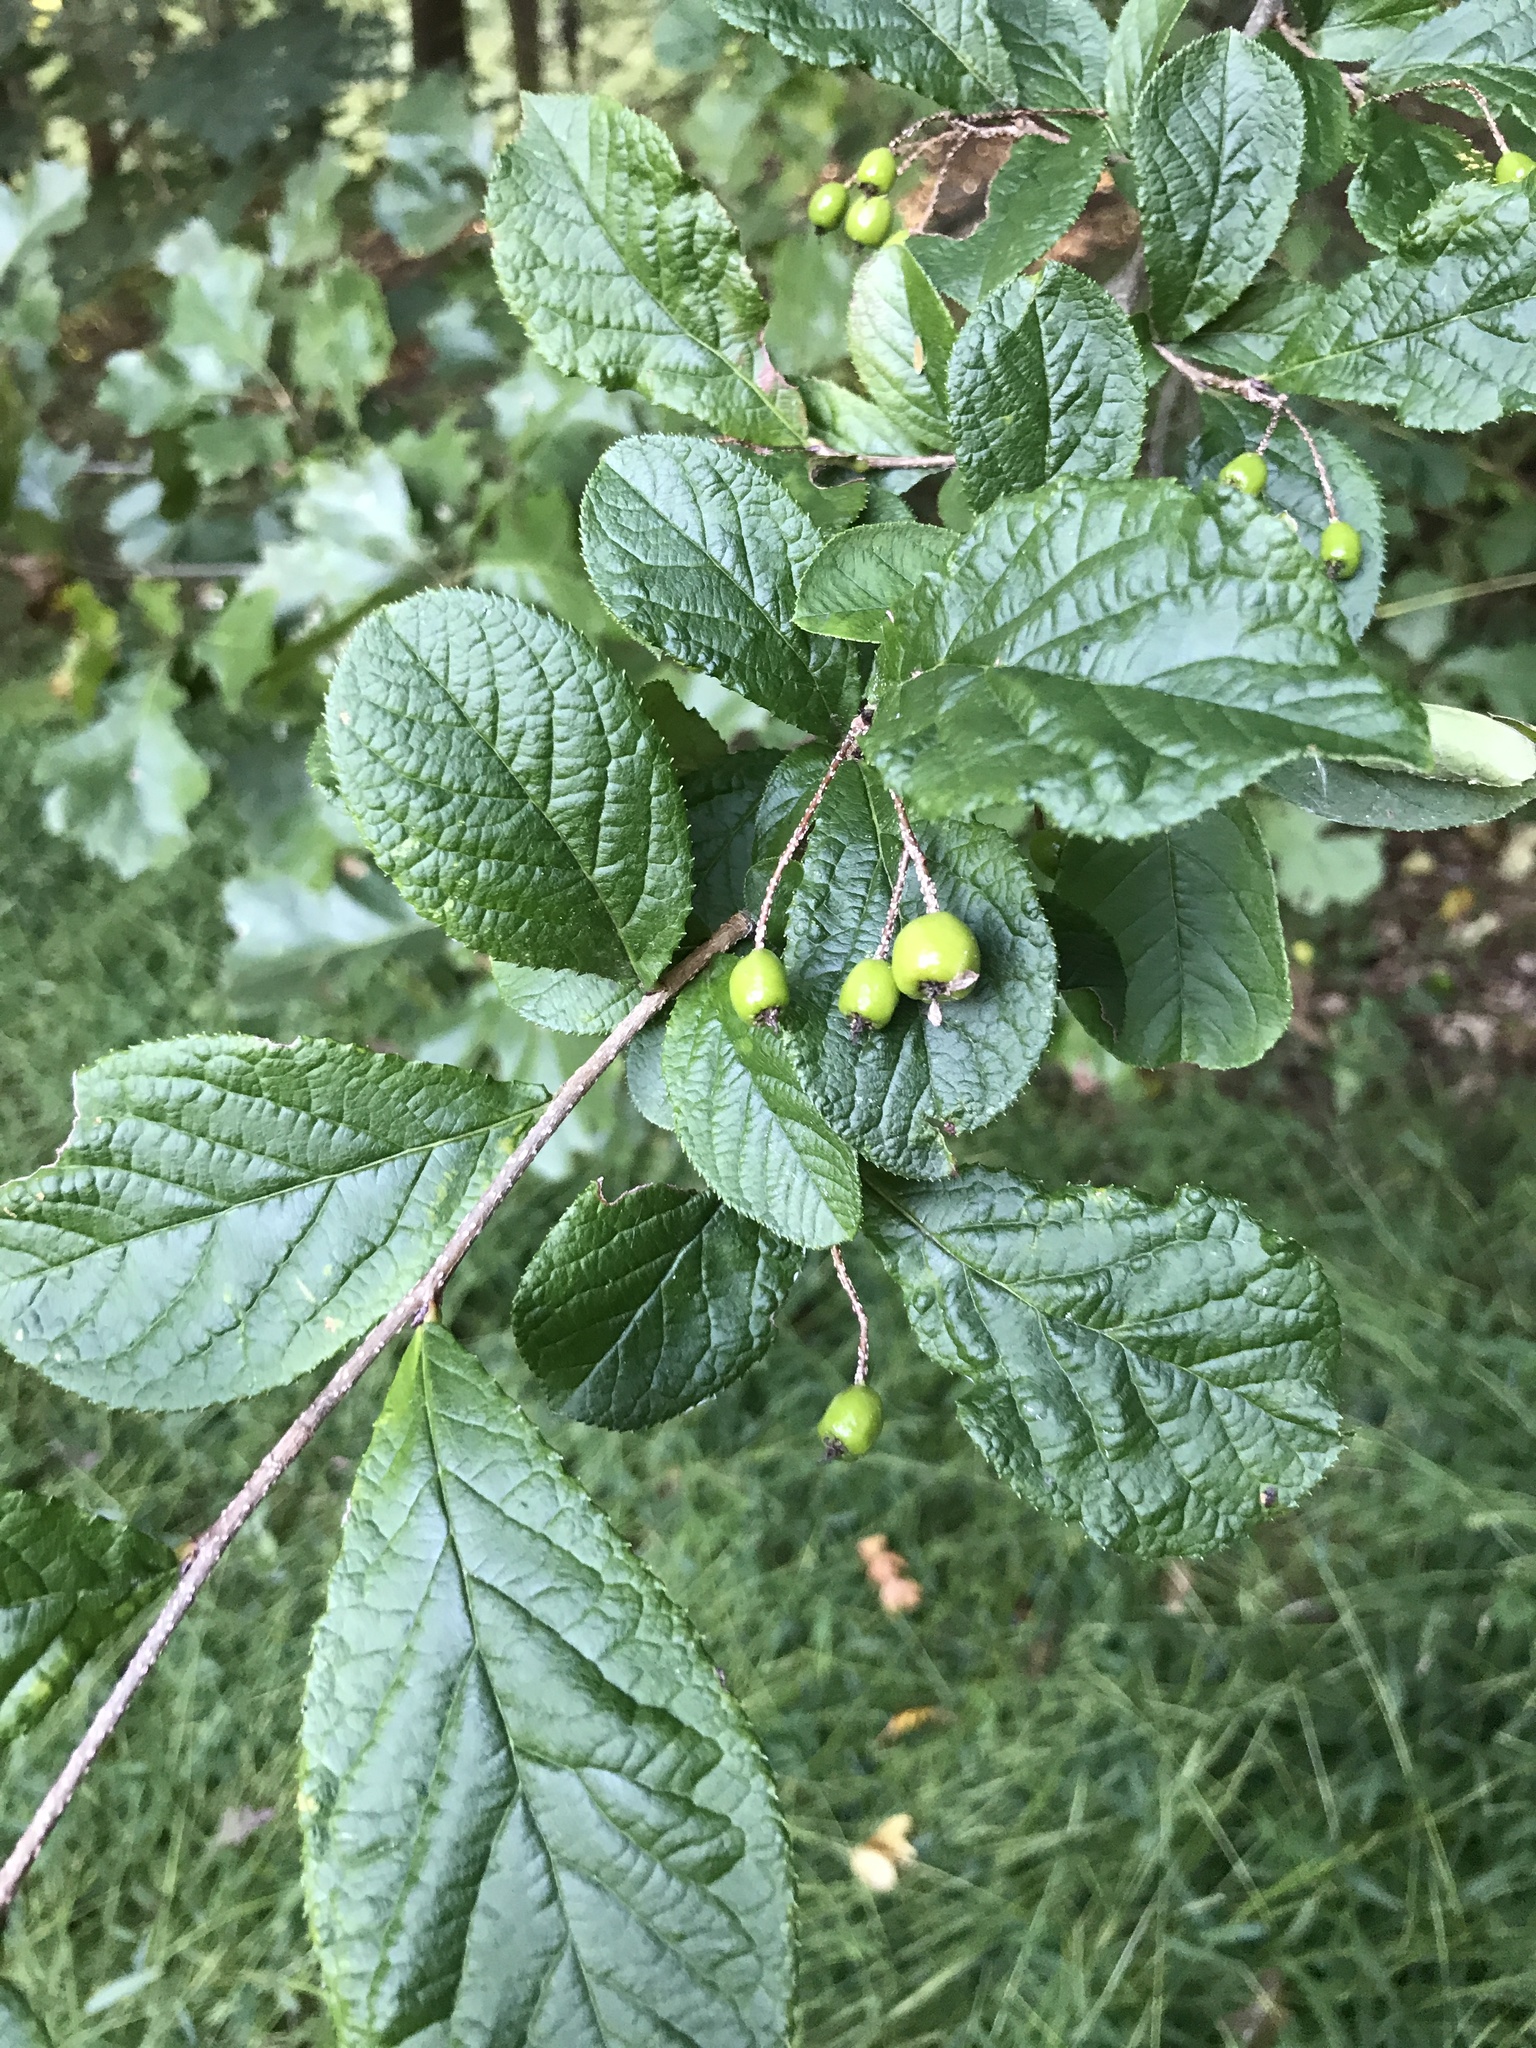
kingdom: Plantae
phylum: Tracheophyta
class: Magnoliopsida
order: Rosales
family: Rosaceae
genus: Pourthiaea
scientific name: Pourthiaea villosa
